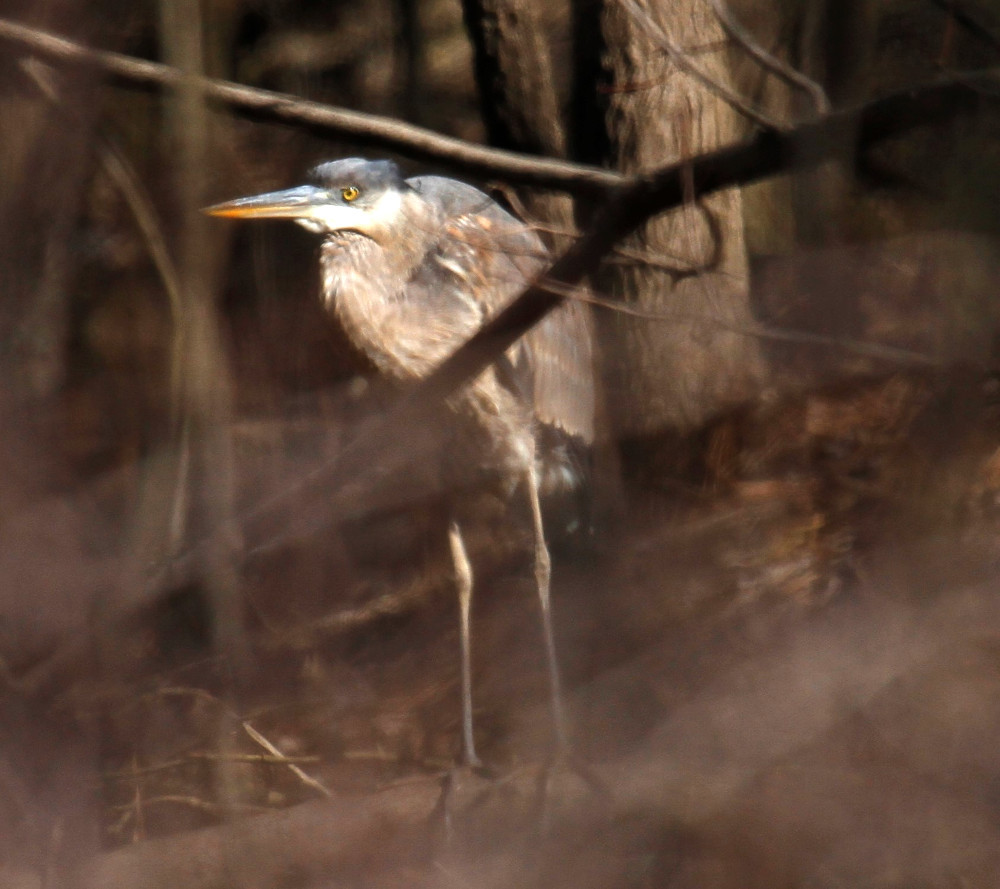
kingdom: Animalia
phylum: Chordata
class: Aves
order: Pelecaniformes
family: Ardeidae
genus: Ardea
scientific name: Ardea herodias
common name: Great blue heron
